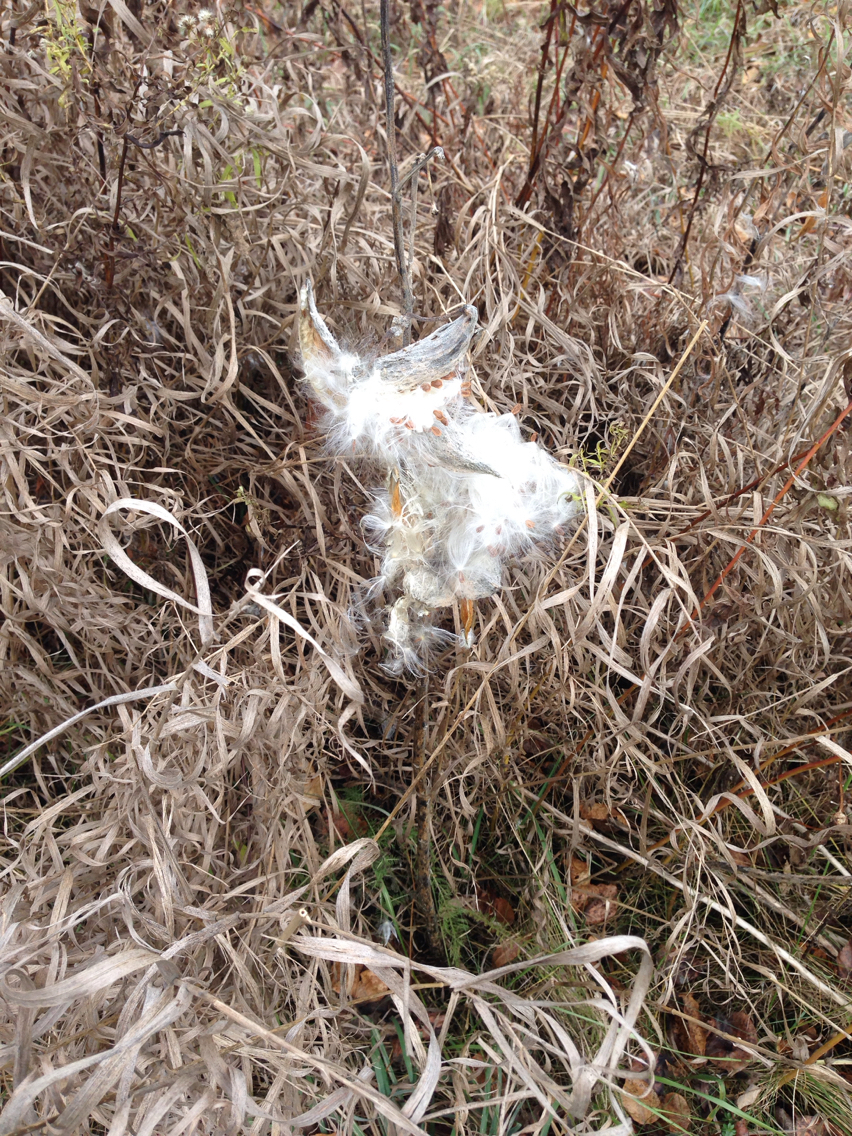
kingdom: Plantae
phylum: Tracheophyta
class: Magnoliopsida
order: Gentianales
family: Apocynaceae
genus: Asclepias
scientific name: Asclepias syriaca
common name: Common milkweed
